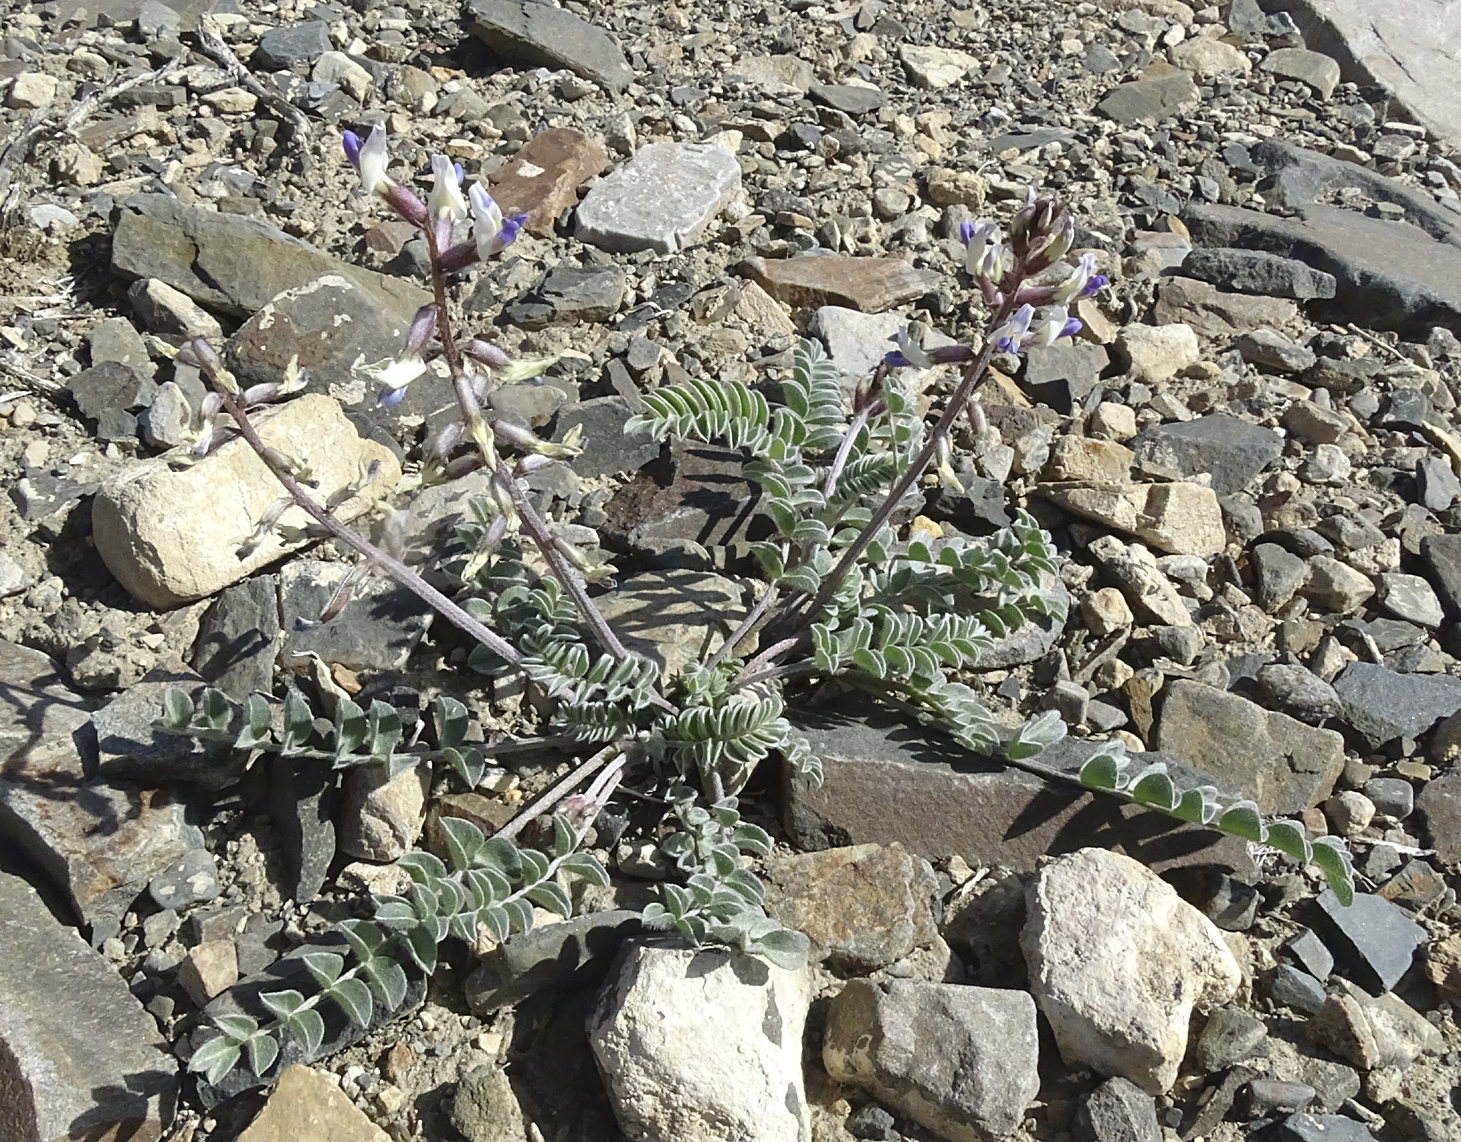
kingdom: Plantae
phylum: Tracheophyta
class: Magnoliopsida
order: Fabales
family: Fabaceae
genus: Astragalus
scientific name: Astragalus layneae
